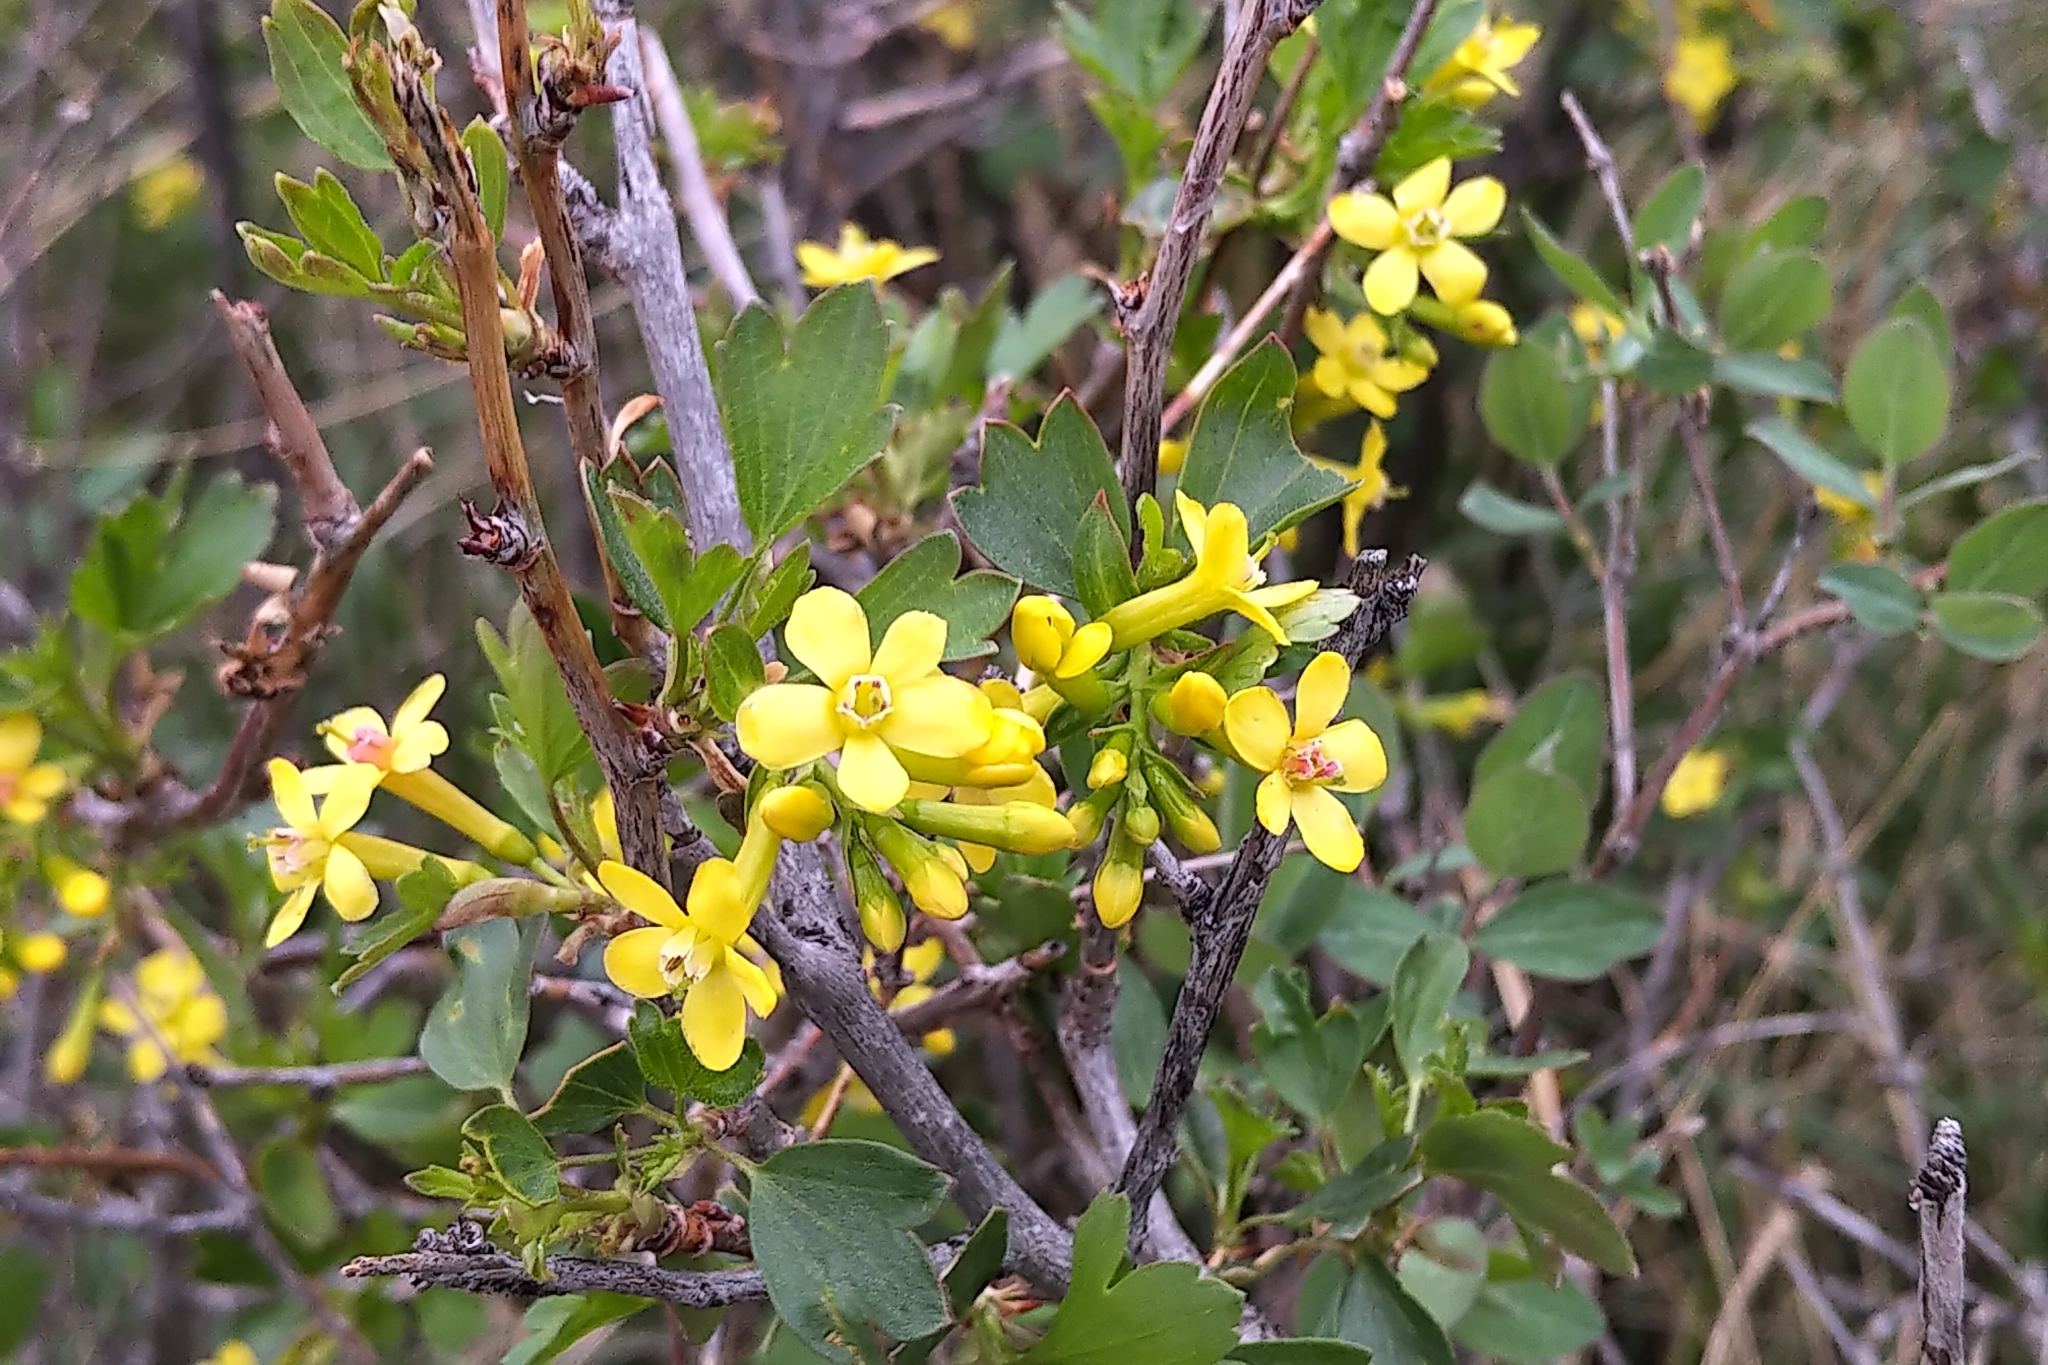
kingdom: Plantae
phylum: Tracheophyta
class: Magnoliopsida
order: Saxifragales
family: Grossulariaceae
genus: Ribes
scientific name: Ribes aureum
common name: Golden currant
